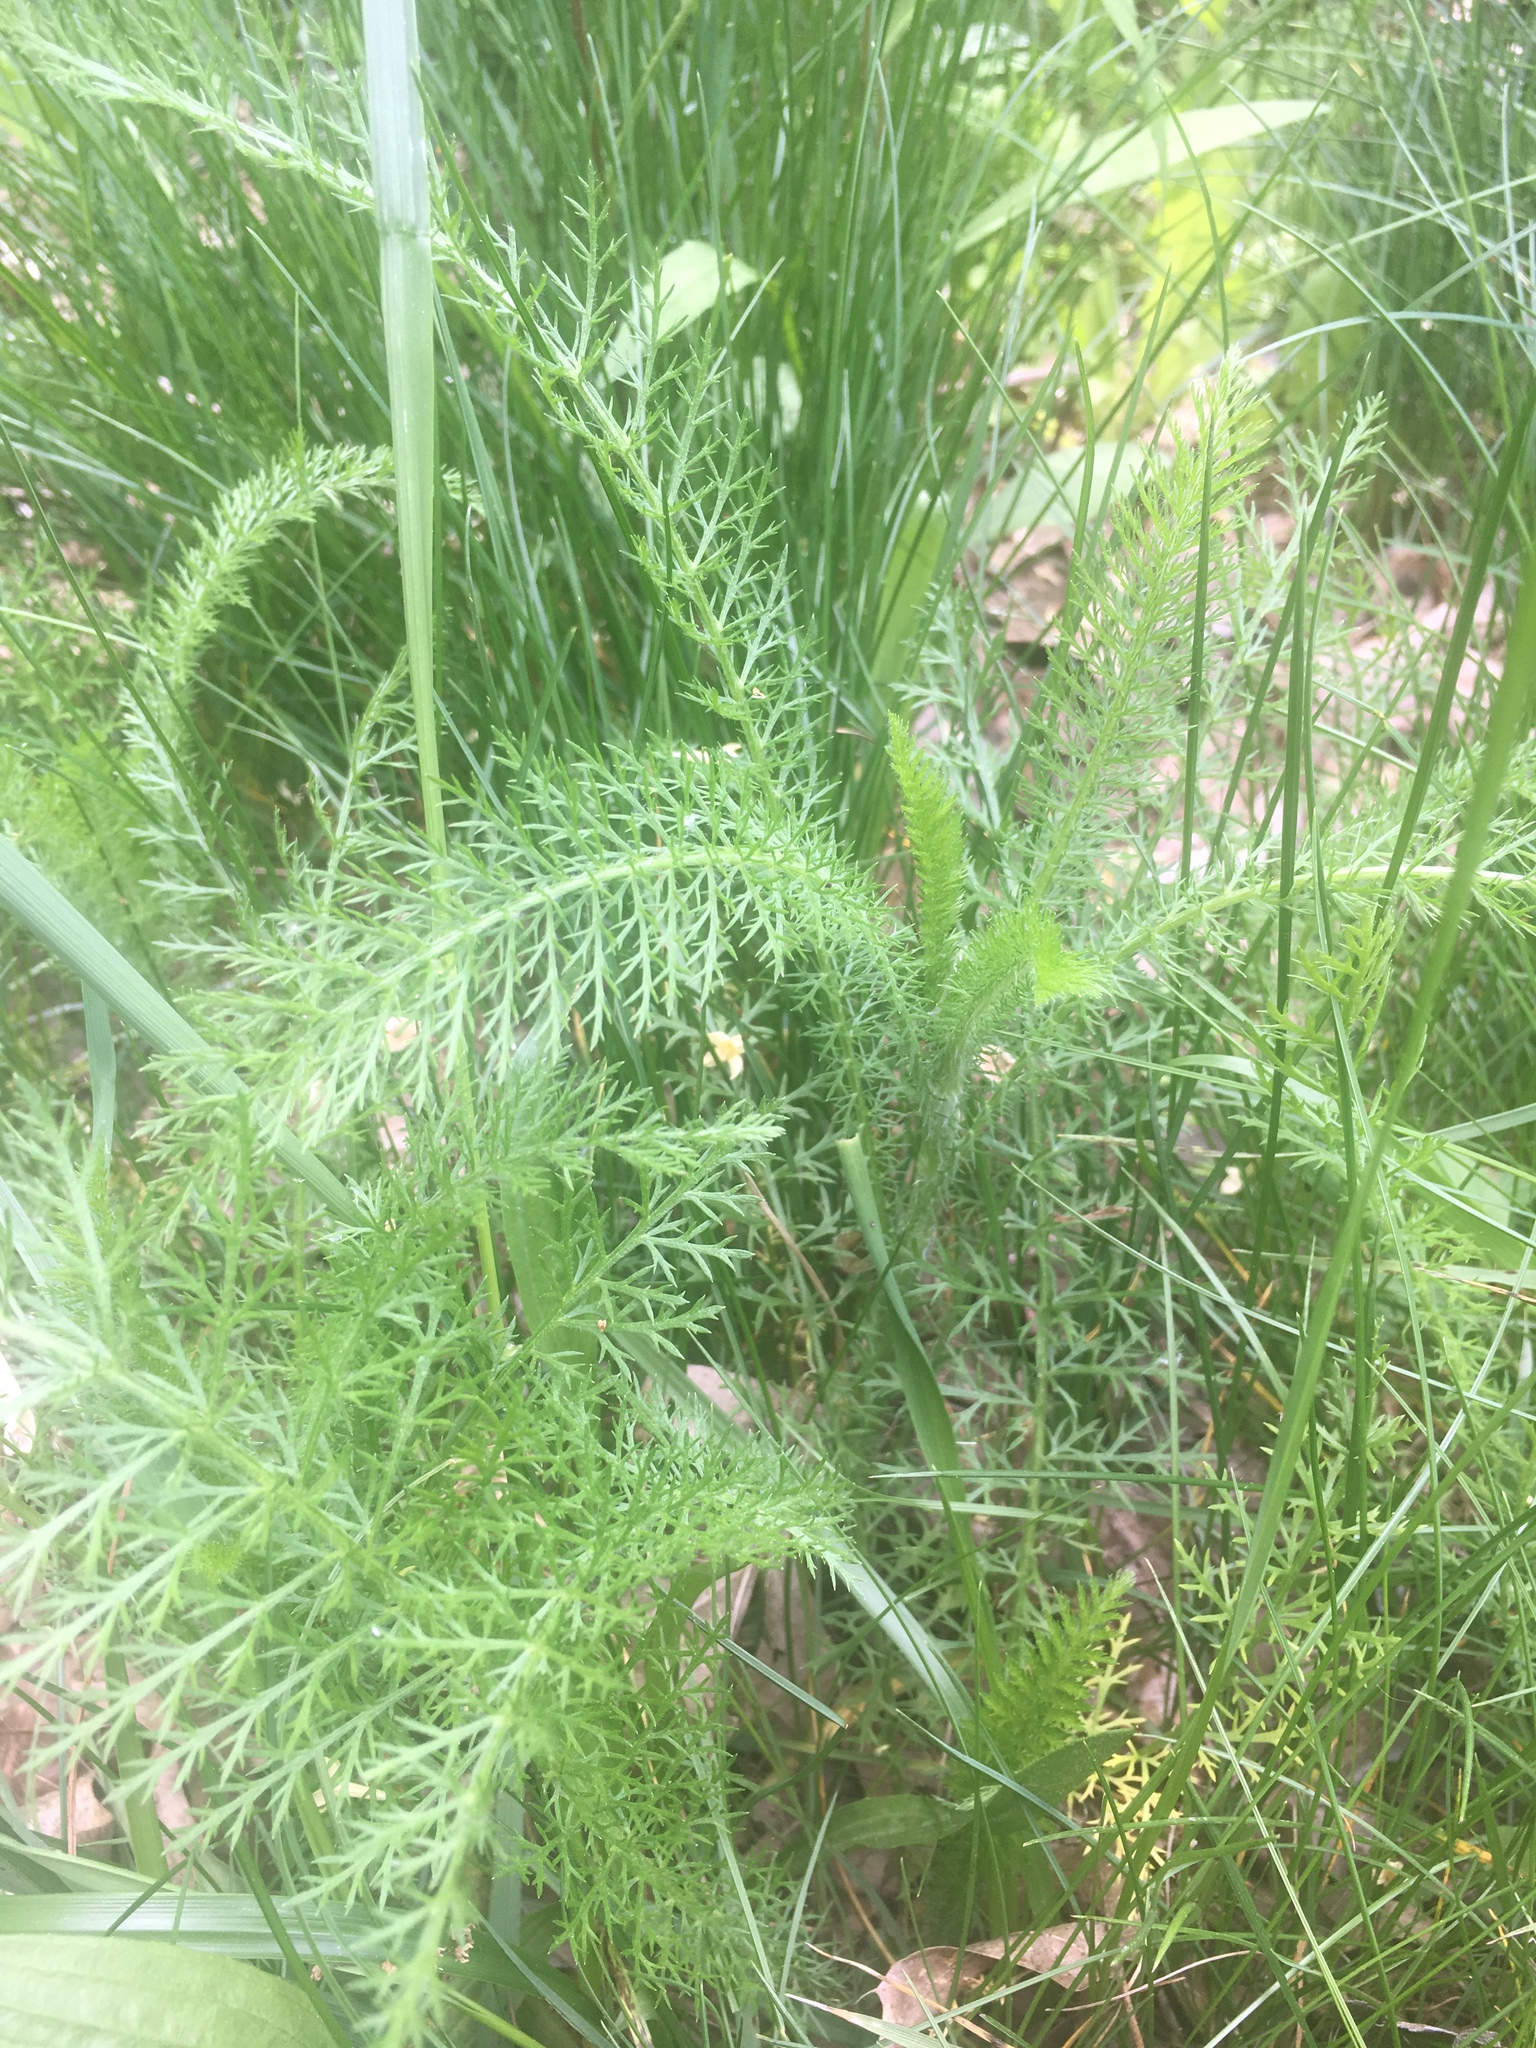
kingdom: Plantae
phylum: Tracheophyta
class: Magnoliopsida
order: Asterales
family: Asteraceae
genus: Achillea
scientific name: Achillea millefolium
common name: Yarrow
